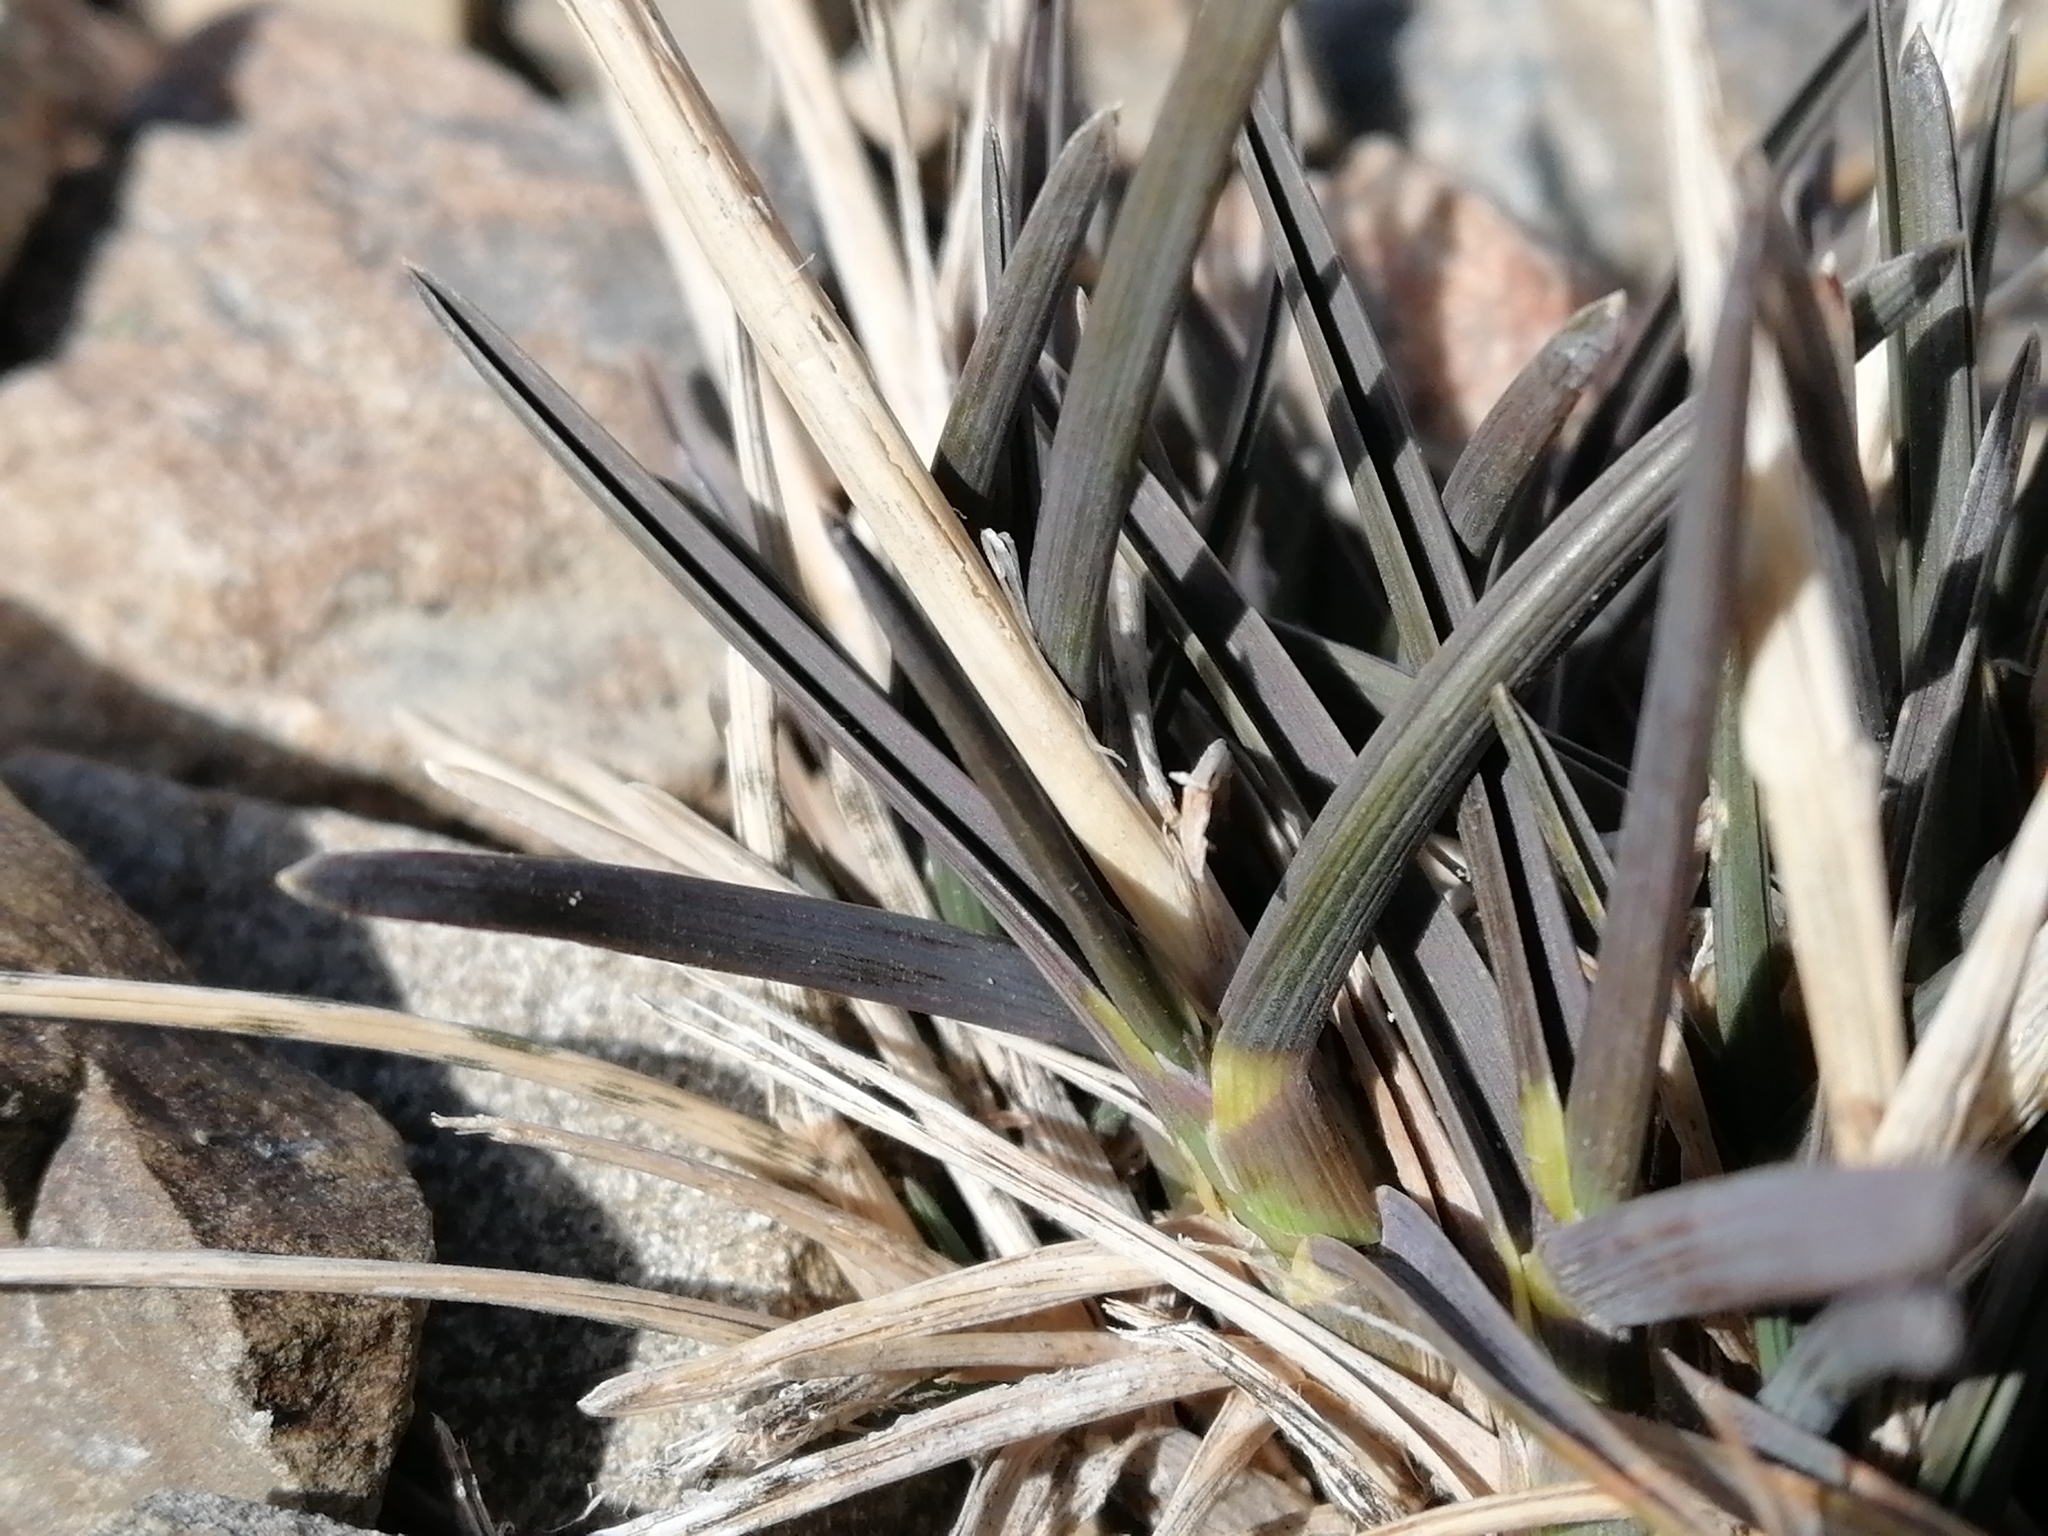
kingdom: Plantae
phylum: Tracheophyta
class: Liliopsida
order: Poales
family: Poaceae
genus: Poa
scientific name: Poa buchananii
